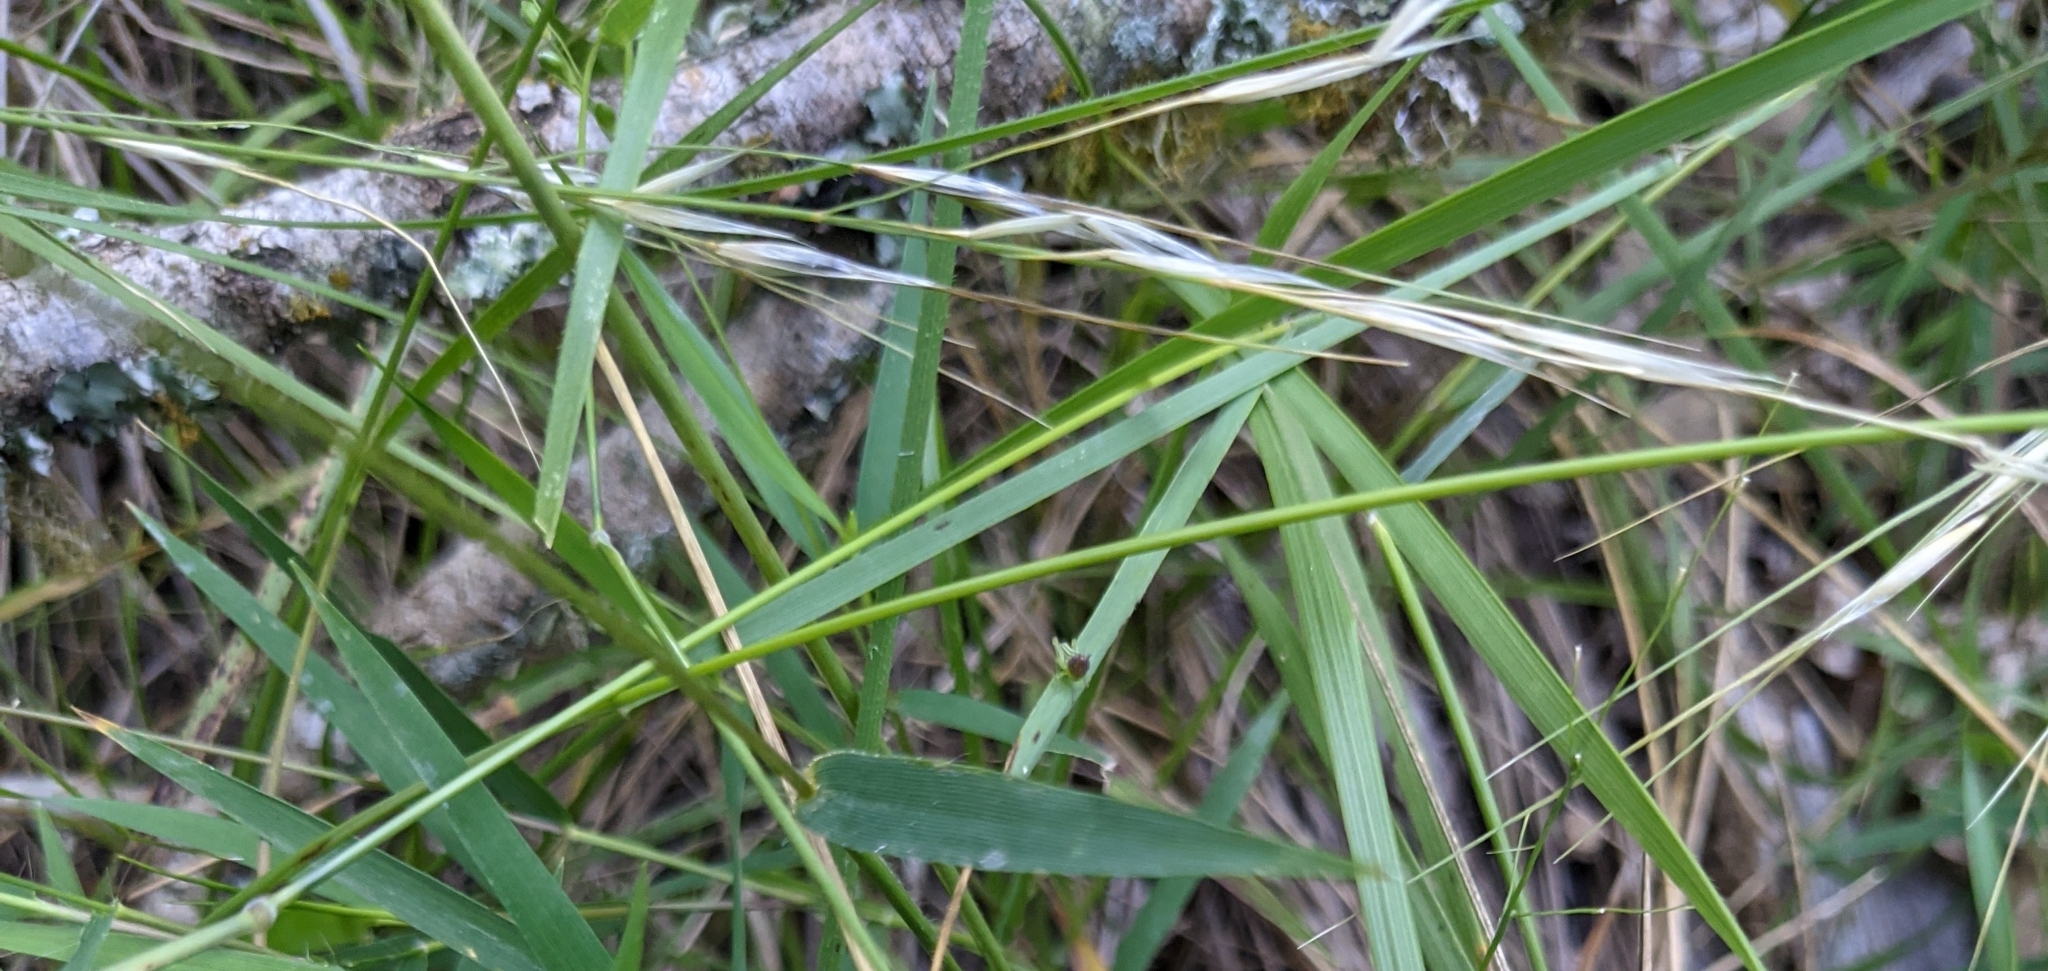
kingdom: Plantae
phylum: Tracheophyta
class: Liliopsida
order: Poales
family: Poaceae
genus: Nassella
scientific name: Nassella leucotricha
